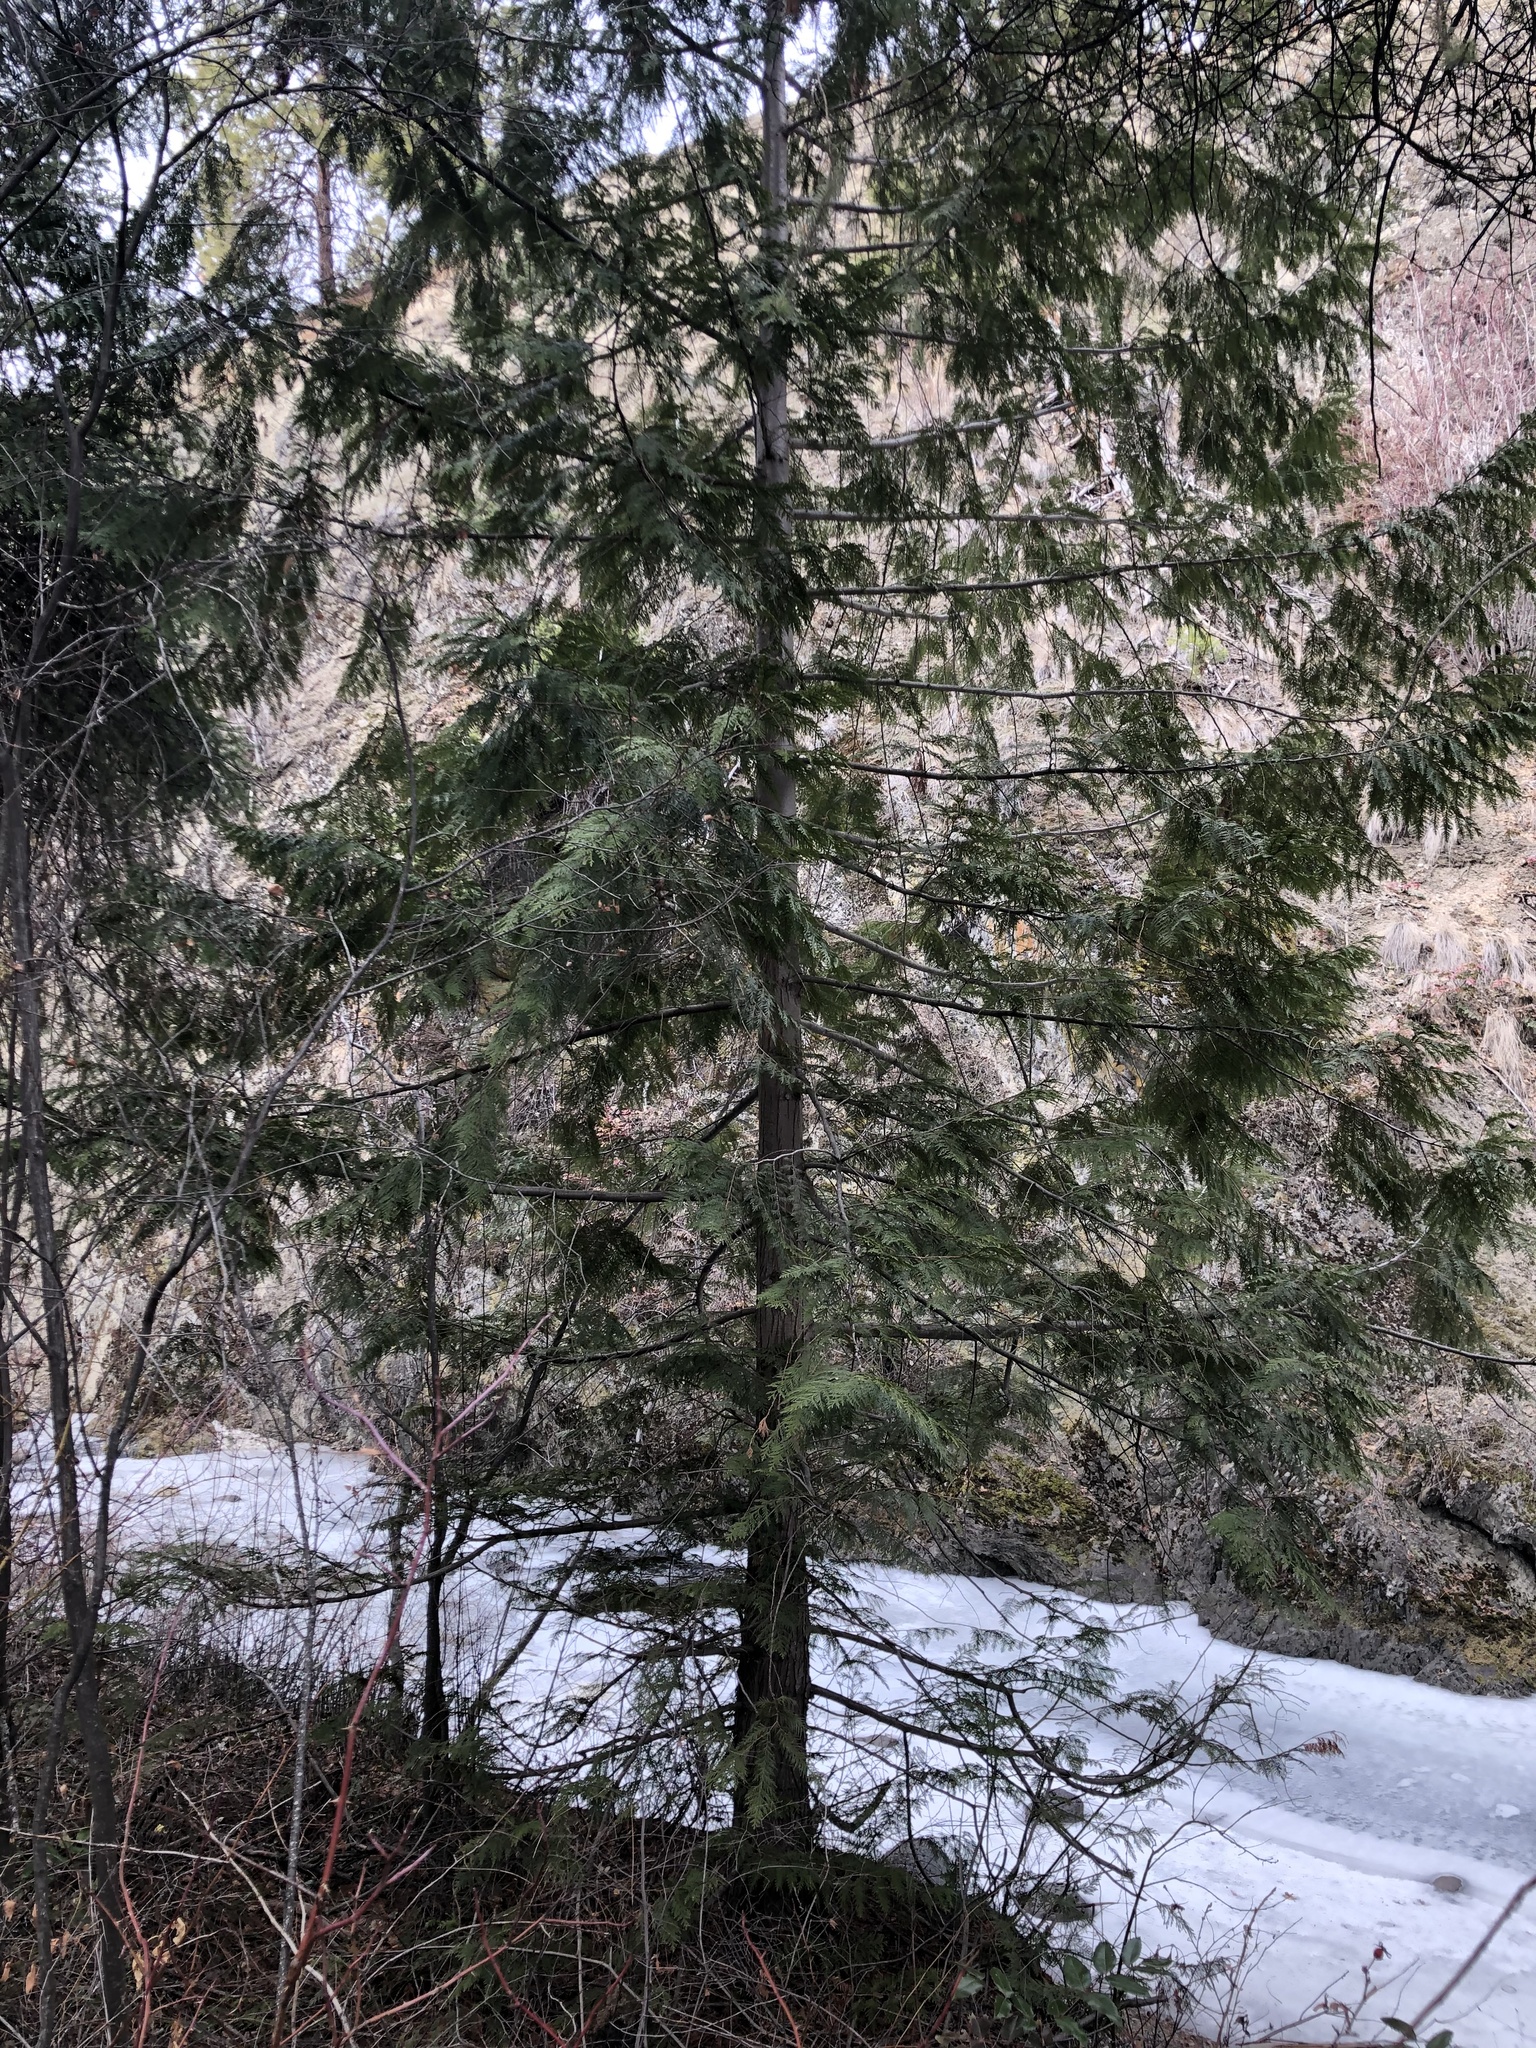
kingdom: Plantae
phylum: Tracheophyta
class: Pinopsida
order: Pinales
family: Cupressaceae
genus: Thuja
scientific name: Thuja plicata
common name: Western red-cedar
